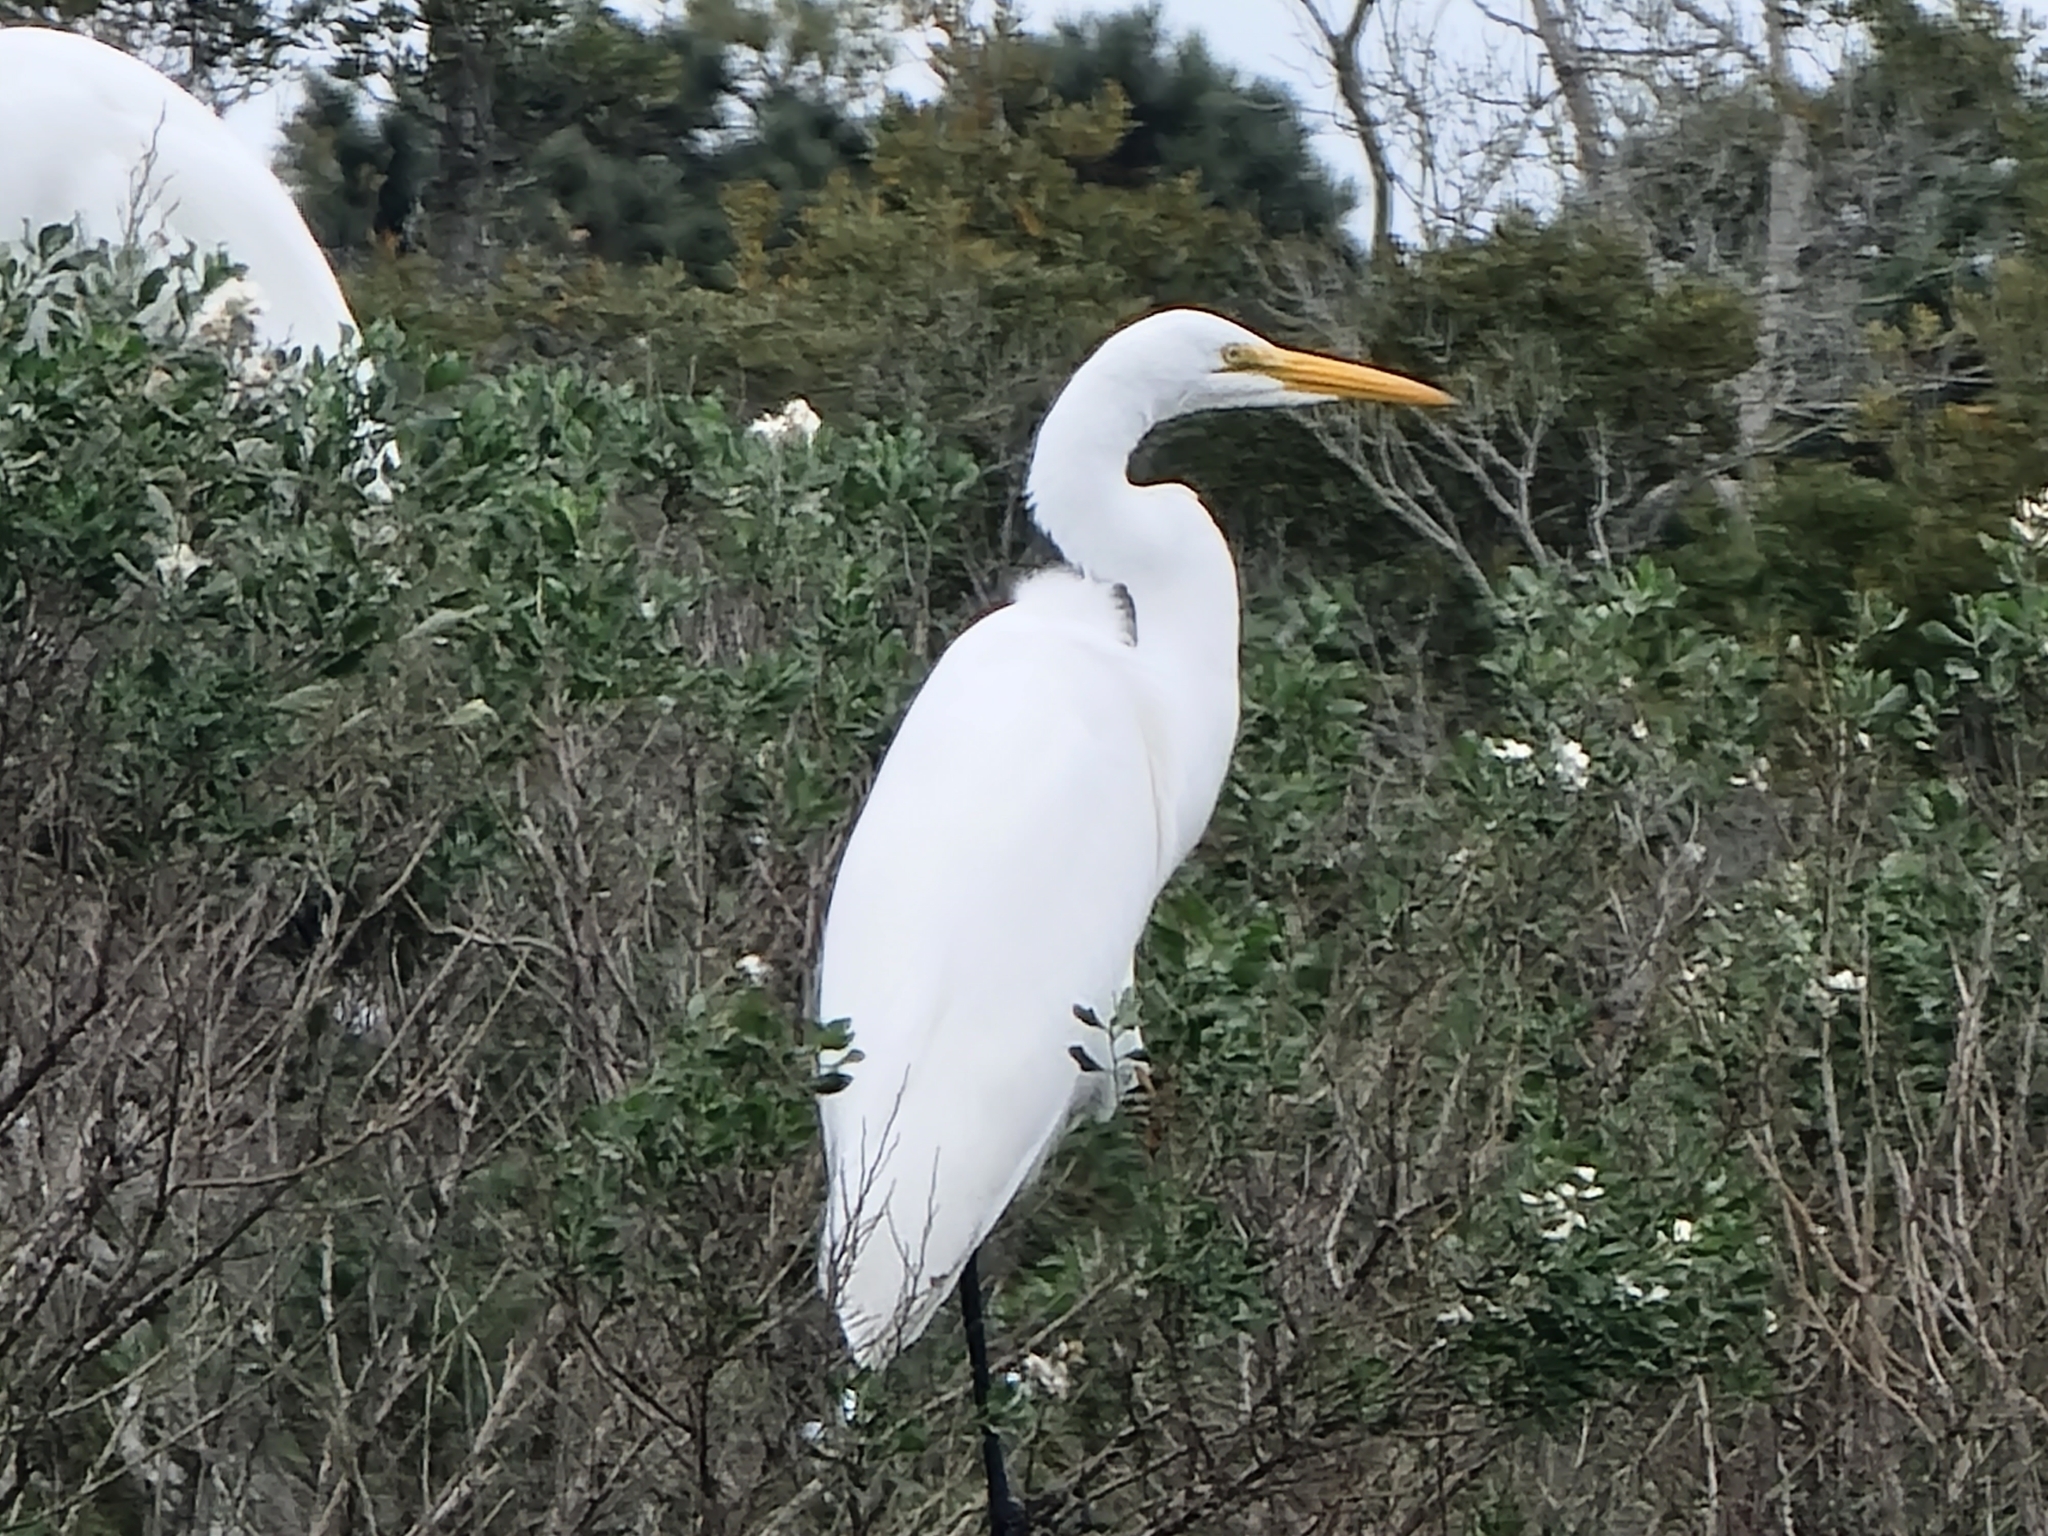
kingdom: Animalia
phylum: Chordata
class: Aves
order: Pelecaniformes
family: Ardeidae
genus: Ardea
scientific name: Ardea alba
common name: Great egret
